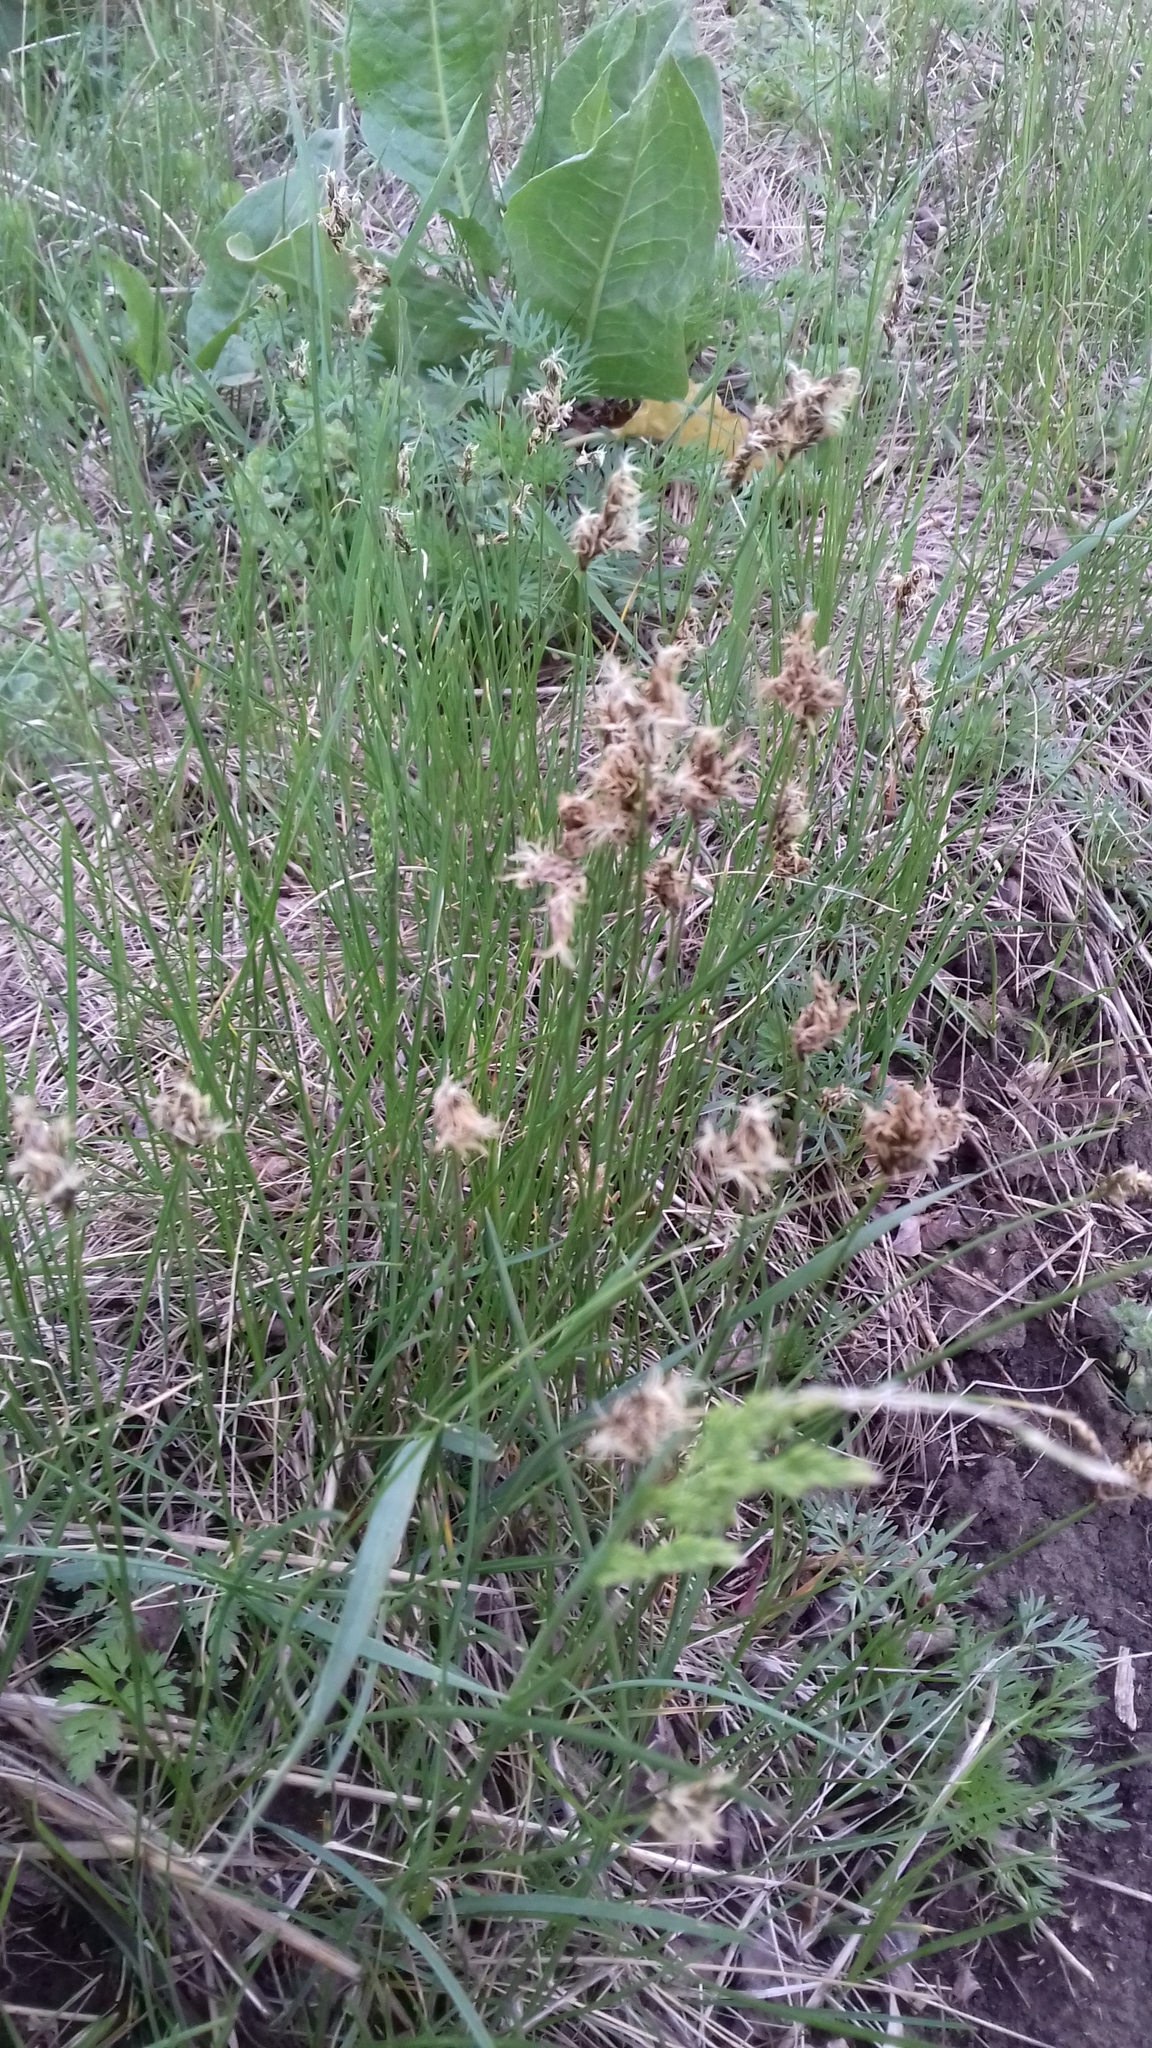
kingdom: Plantae
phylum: Tracheophyta
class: Liliopsida
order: Poales
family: Cyperaceae
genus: Carex
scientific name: Carex praecox
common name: Early sedge
